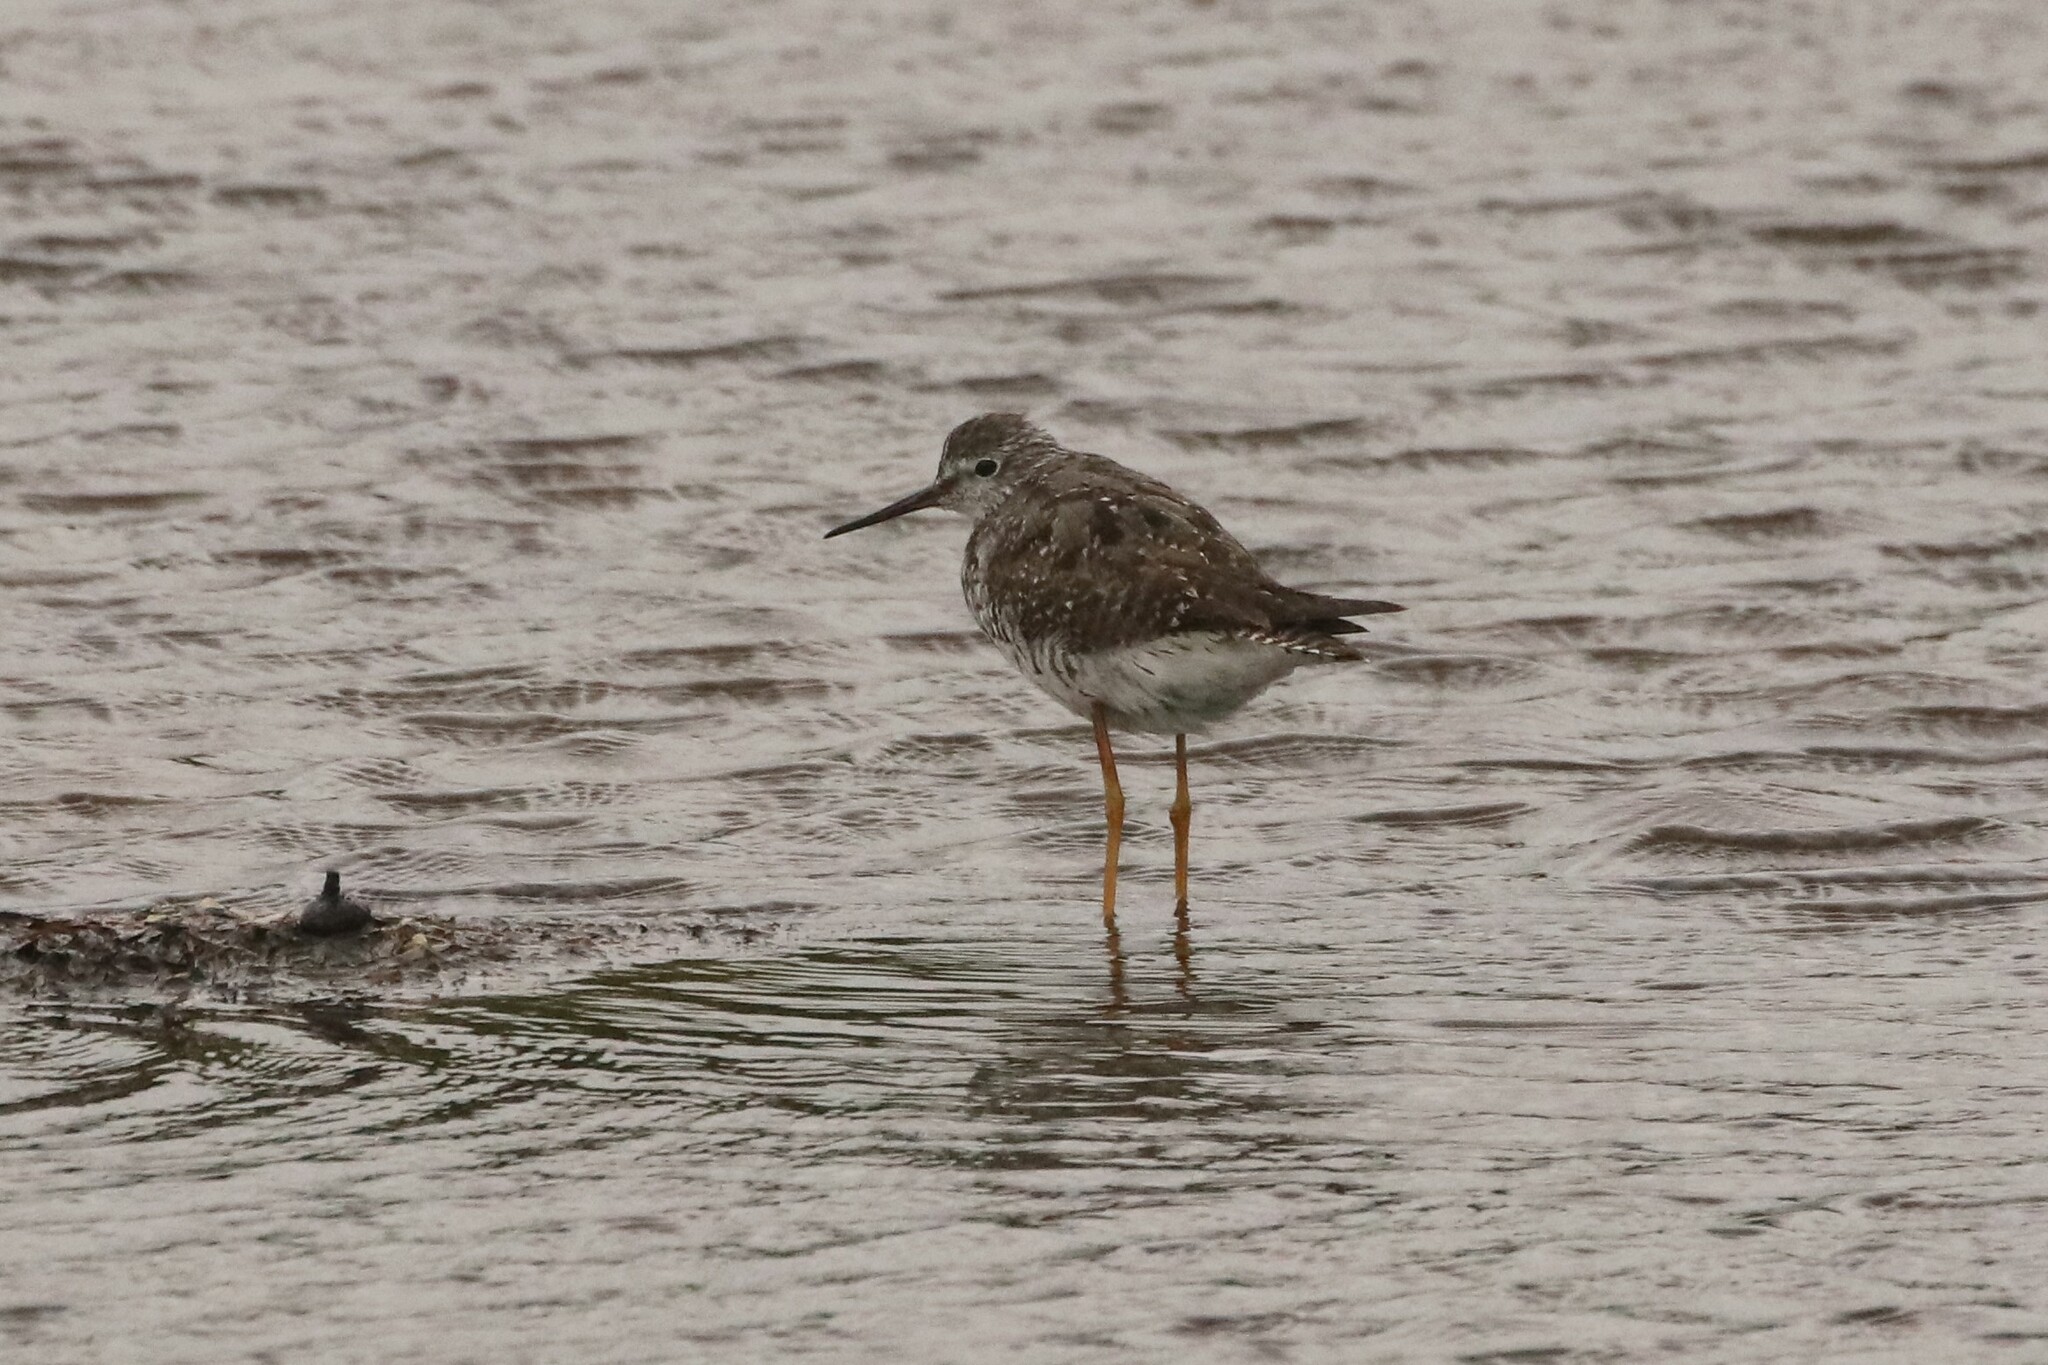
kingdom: Animalia
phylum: Chordata
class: Aves
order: Charadriiformes
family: Scolopacidae
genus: Tringa
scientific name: Tringa melanoleuca
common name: Greater yellowlegs
